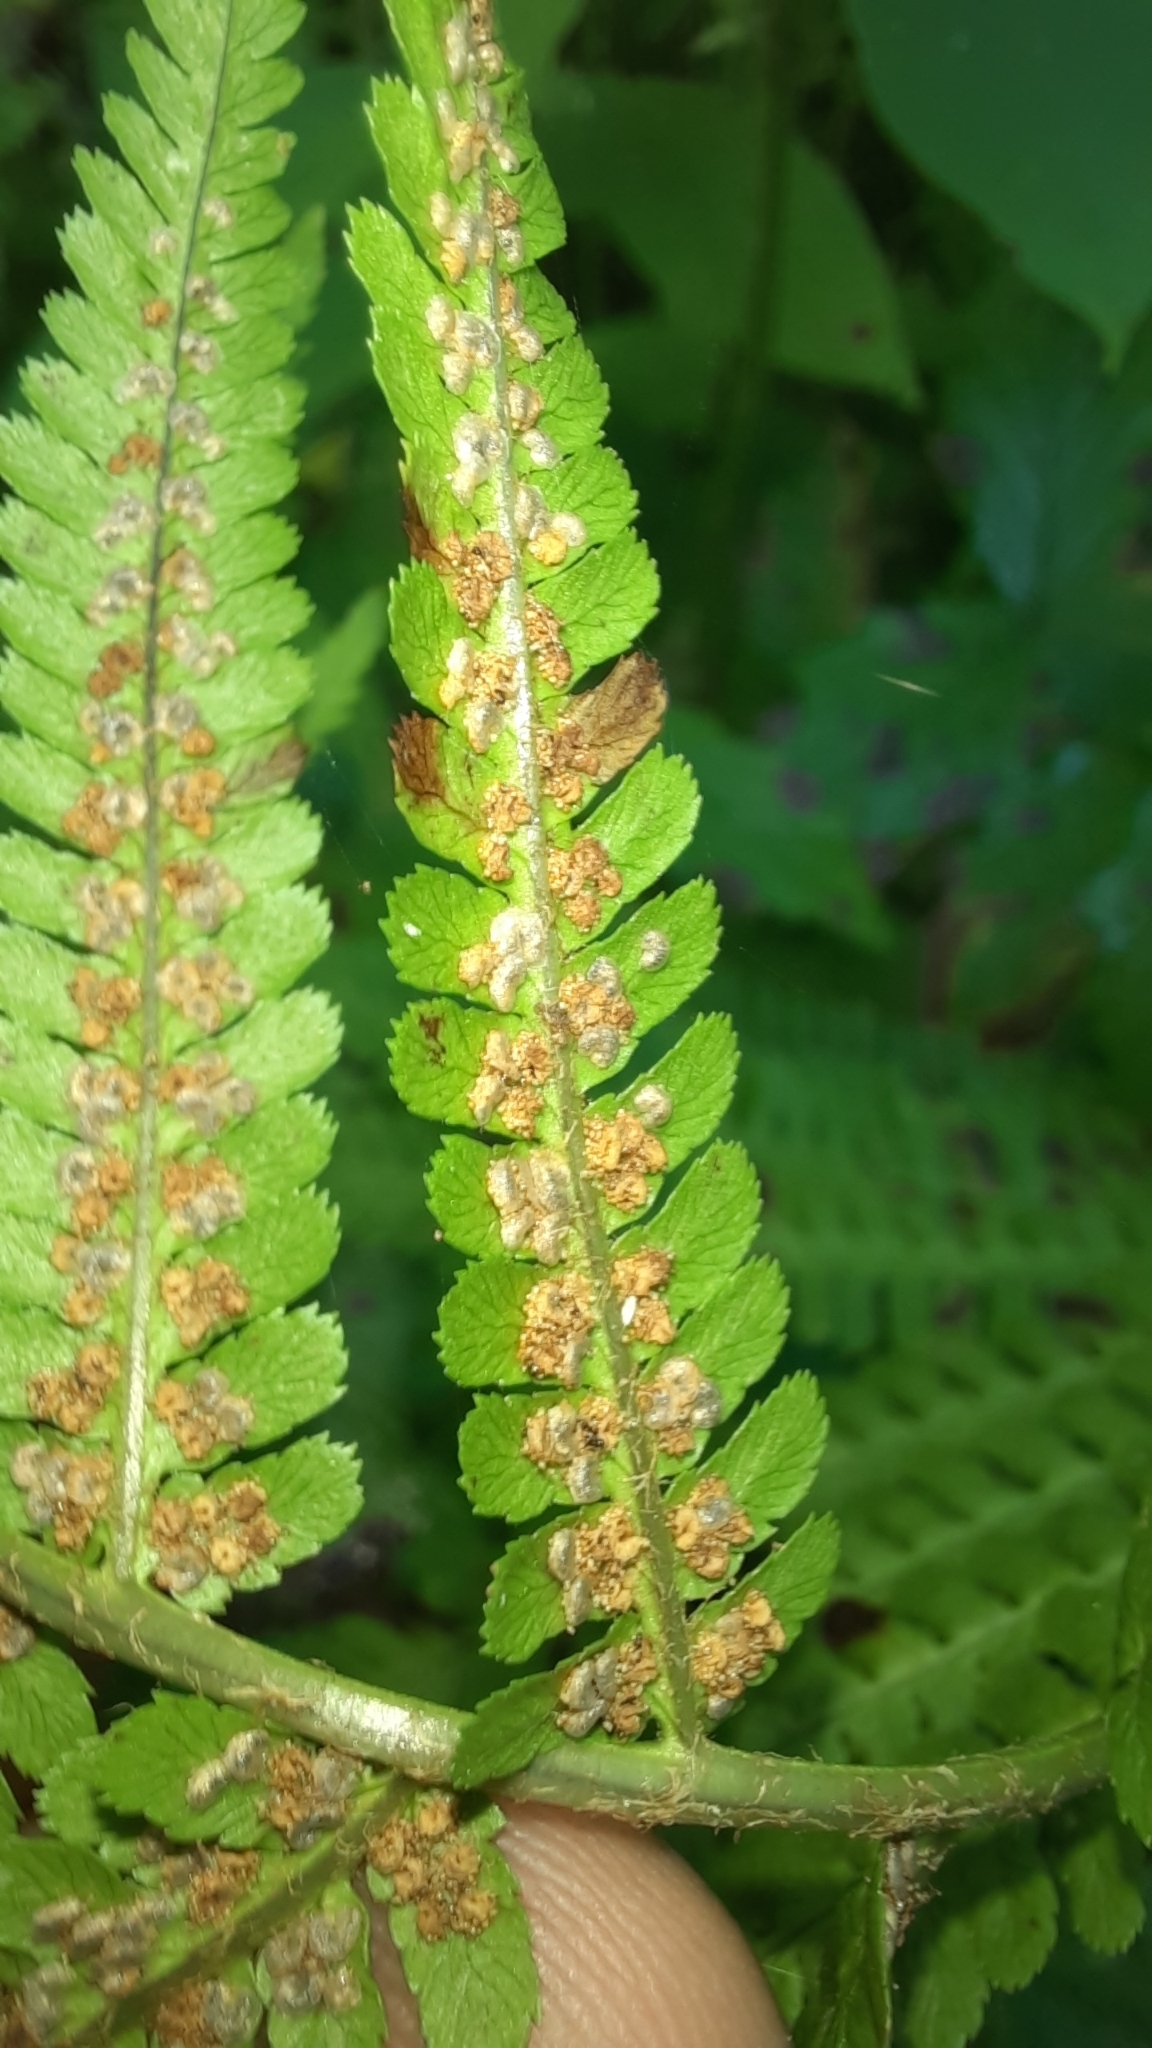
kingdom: Plantae
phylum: Tracheophyta
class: Polypodiopsida
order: Polypodiales
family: Dryopteridaceae
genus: Dryopteris
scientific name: Dryopteris filix-mas
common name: Male fern
